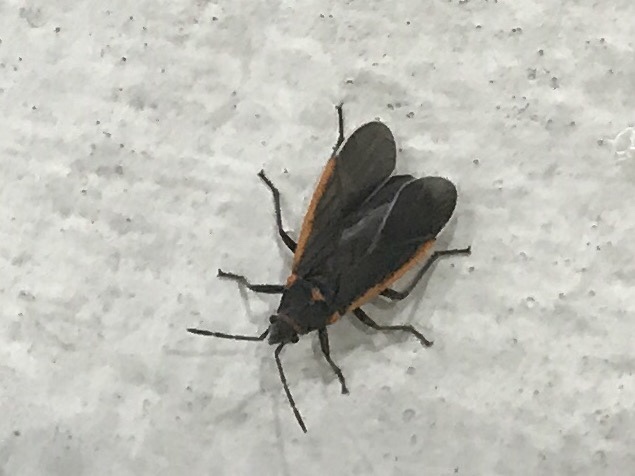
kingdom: Animalia
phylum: Arthropoda
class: Insecta
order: Hemiptera
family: Lygaeidae
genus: Melacoryphus
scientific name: Melacoryphus lateralis
